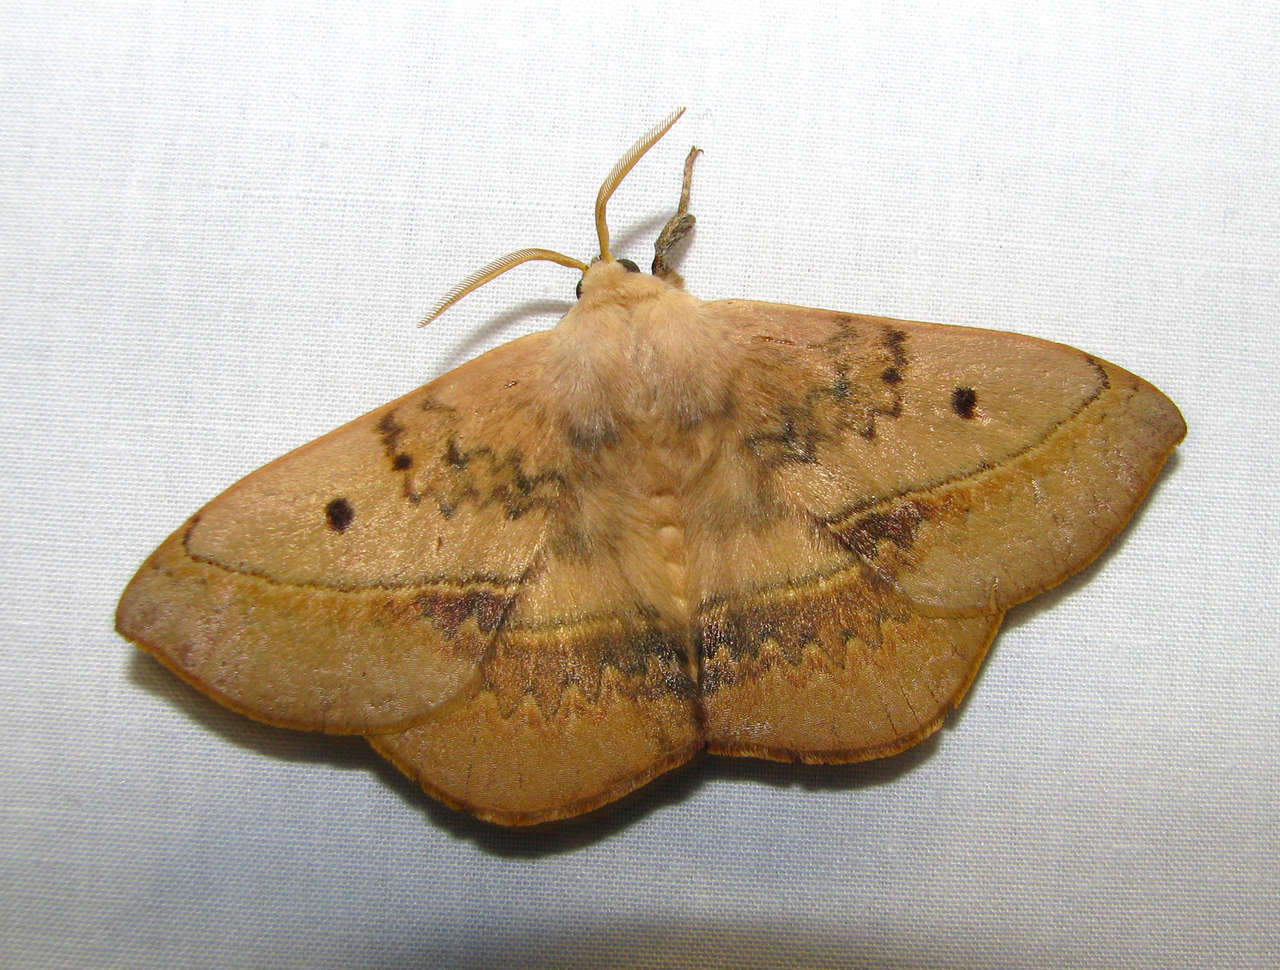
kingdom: Animalia
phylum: Arthropoda
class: Insecta
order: Lepidoptera
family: Anthelidae
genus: Anthela
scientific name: Anthela varia
